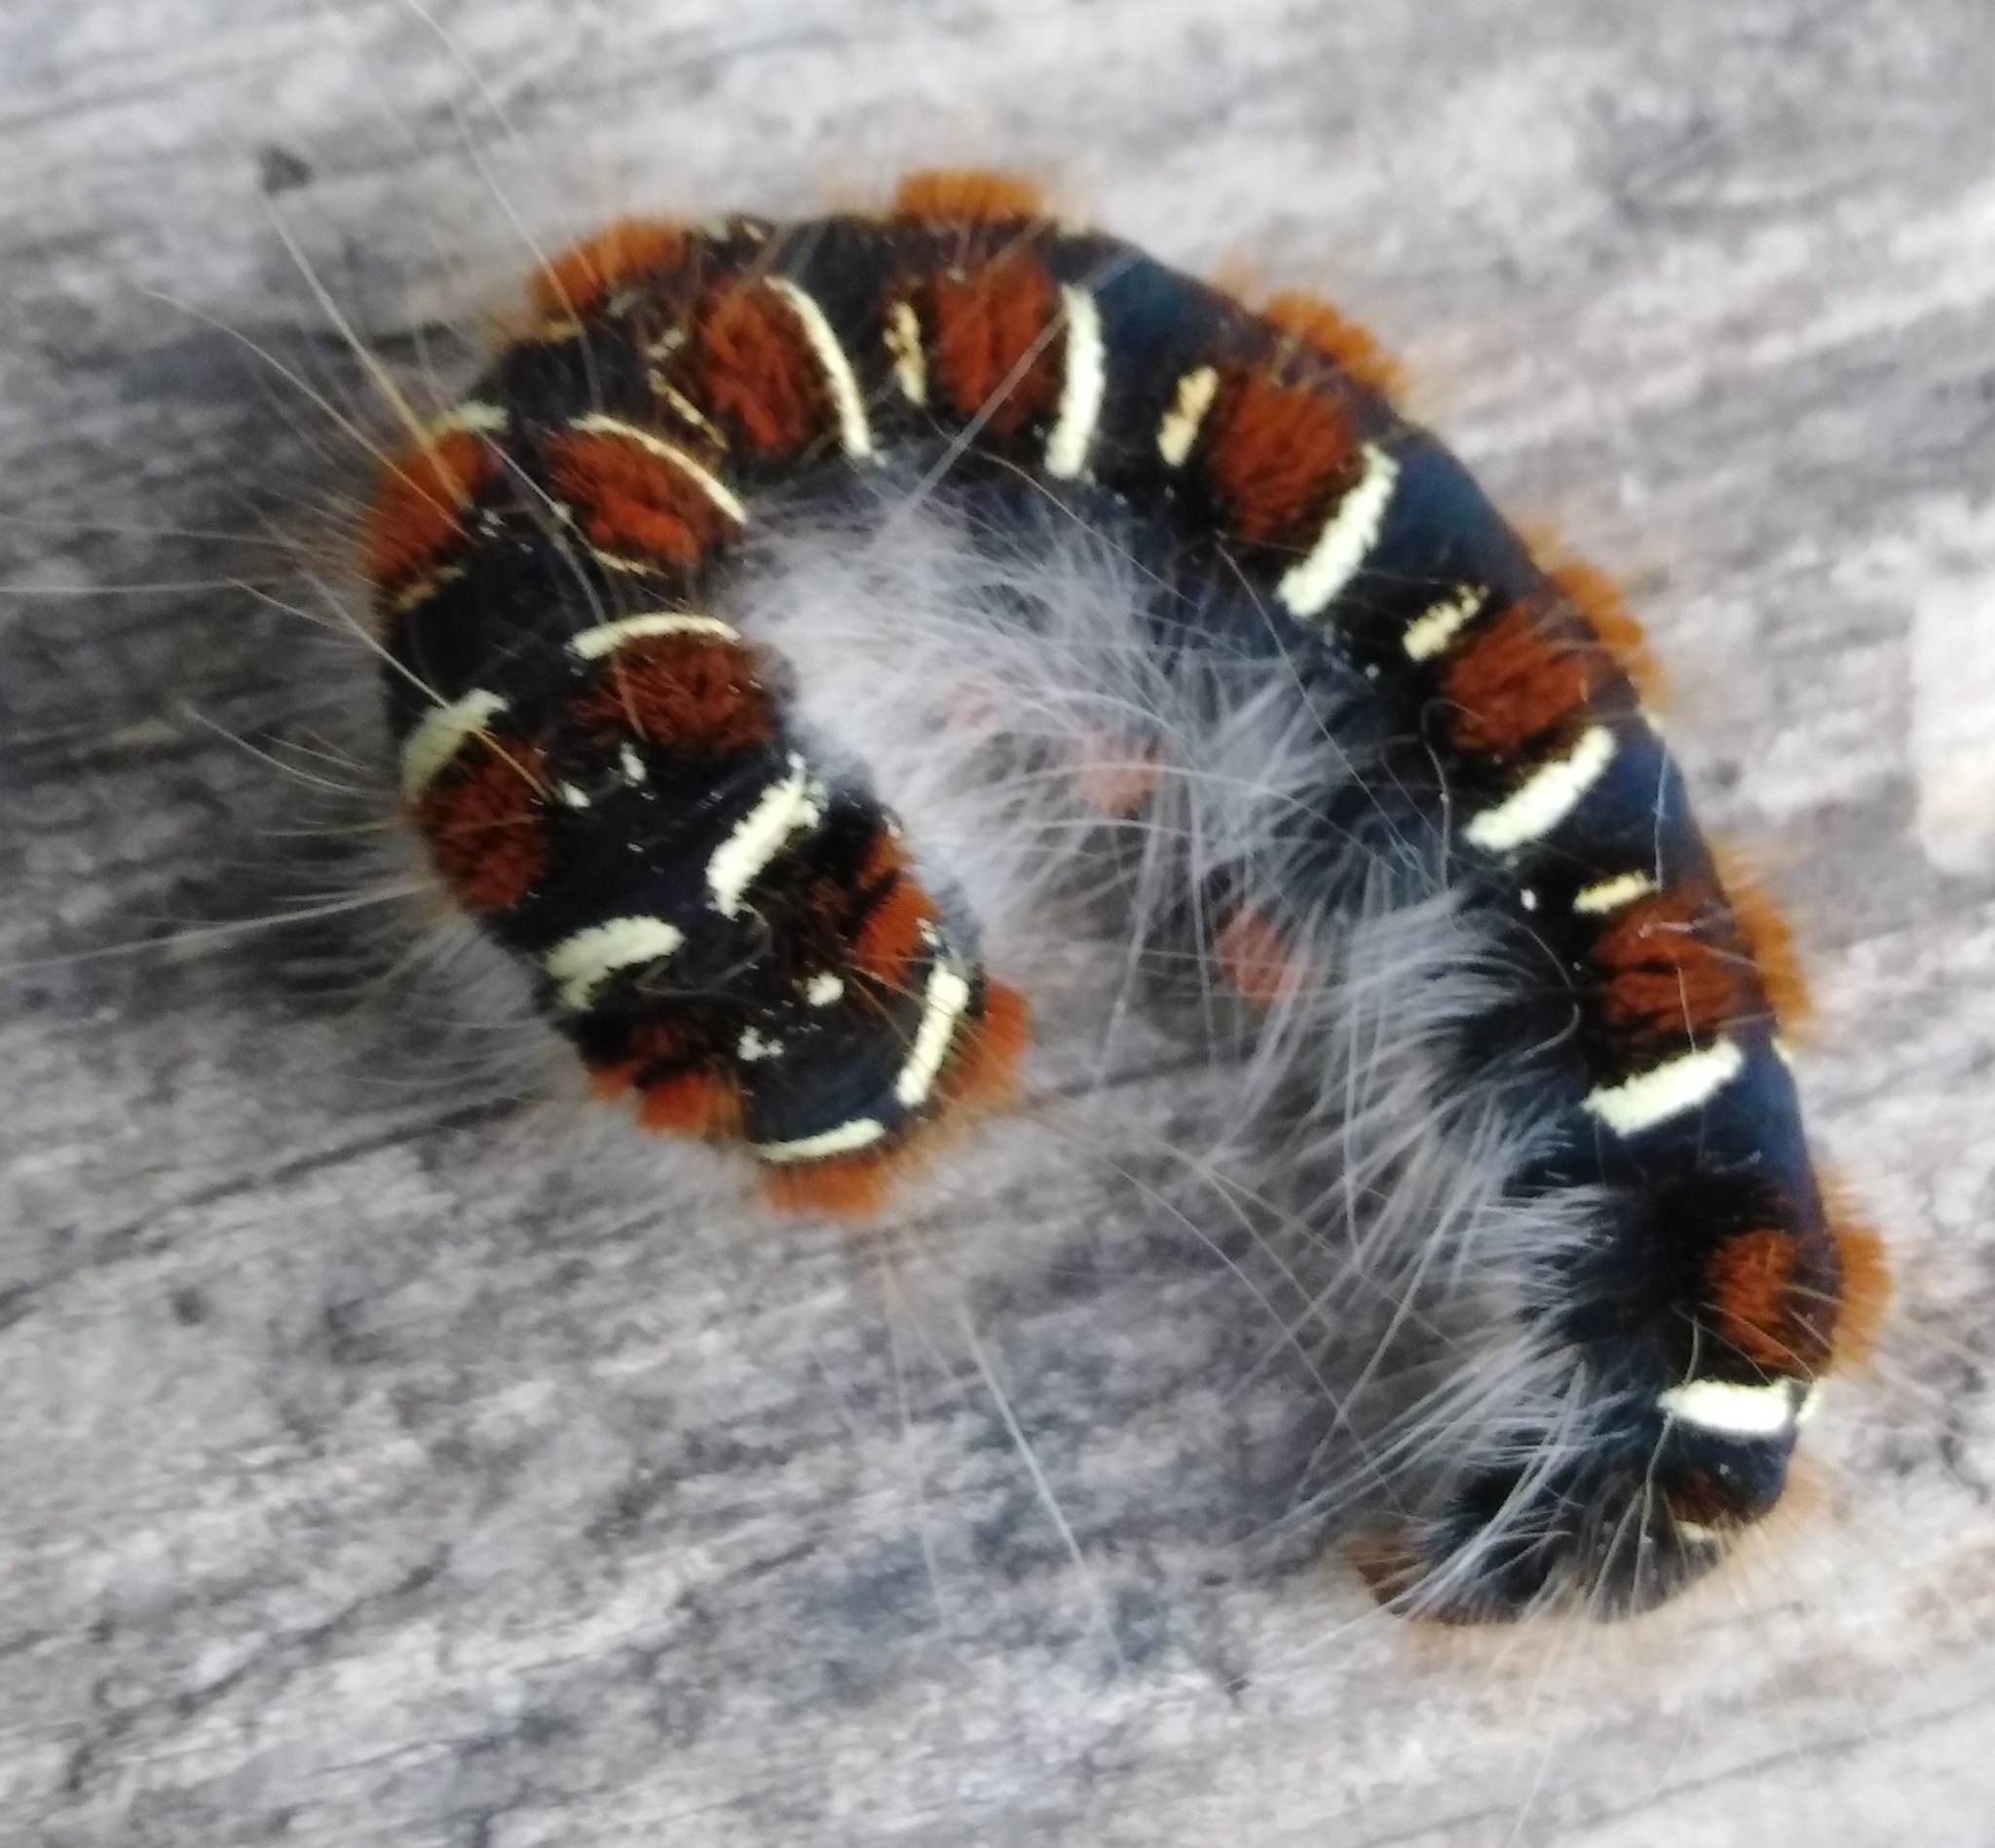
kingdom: Animalia
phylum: Arthropoda
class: Insecta
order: Lepidoptera
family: Lasiocampidae
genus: Eriogaster
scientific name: Eriogaster lanestris
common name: Small eggar
